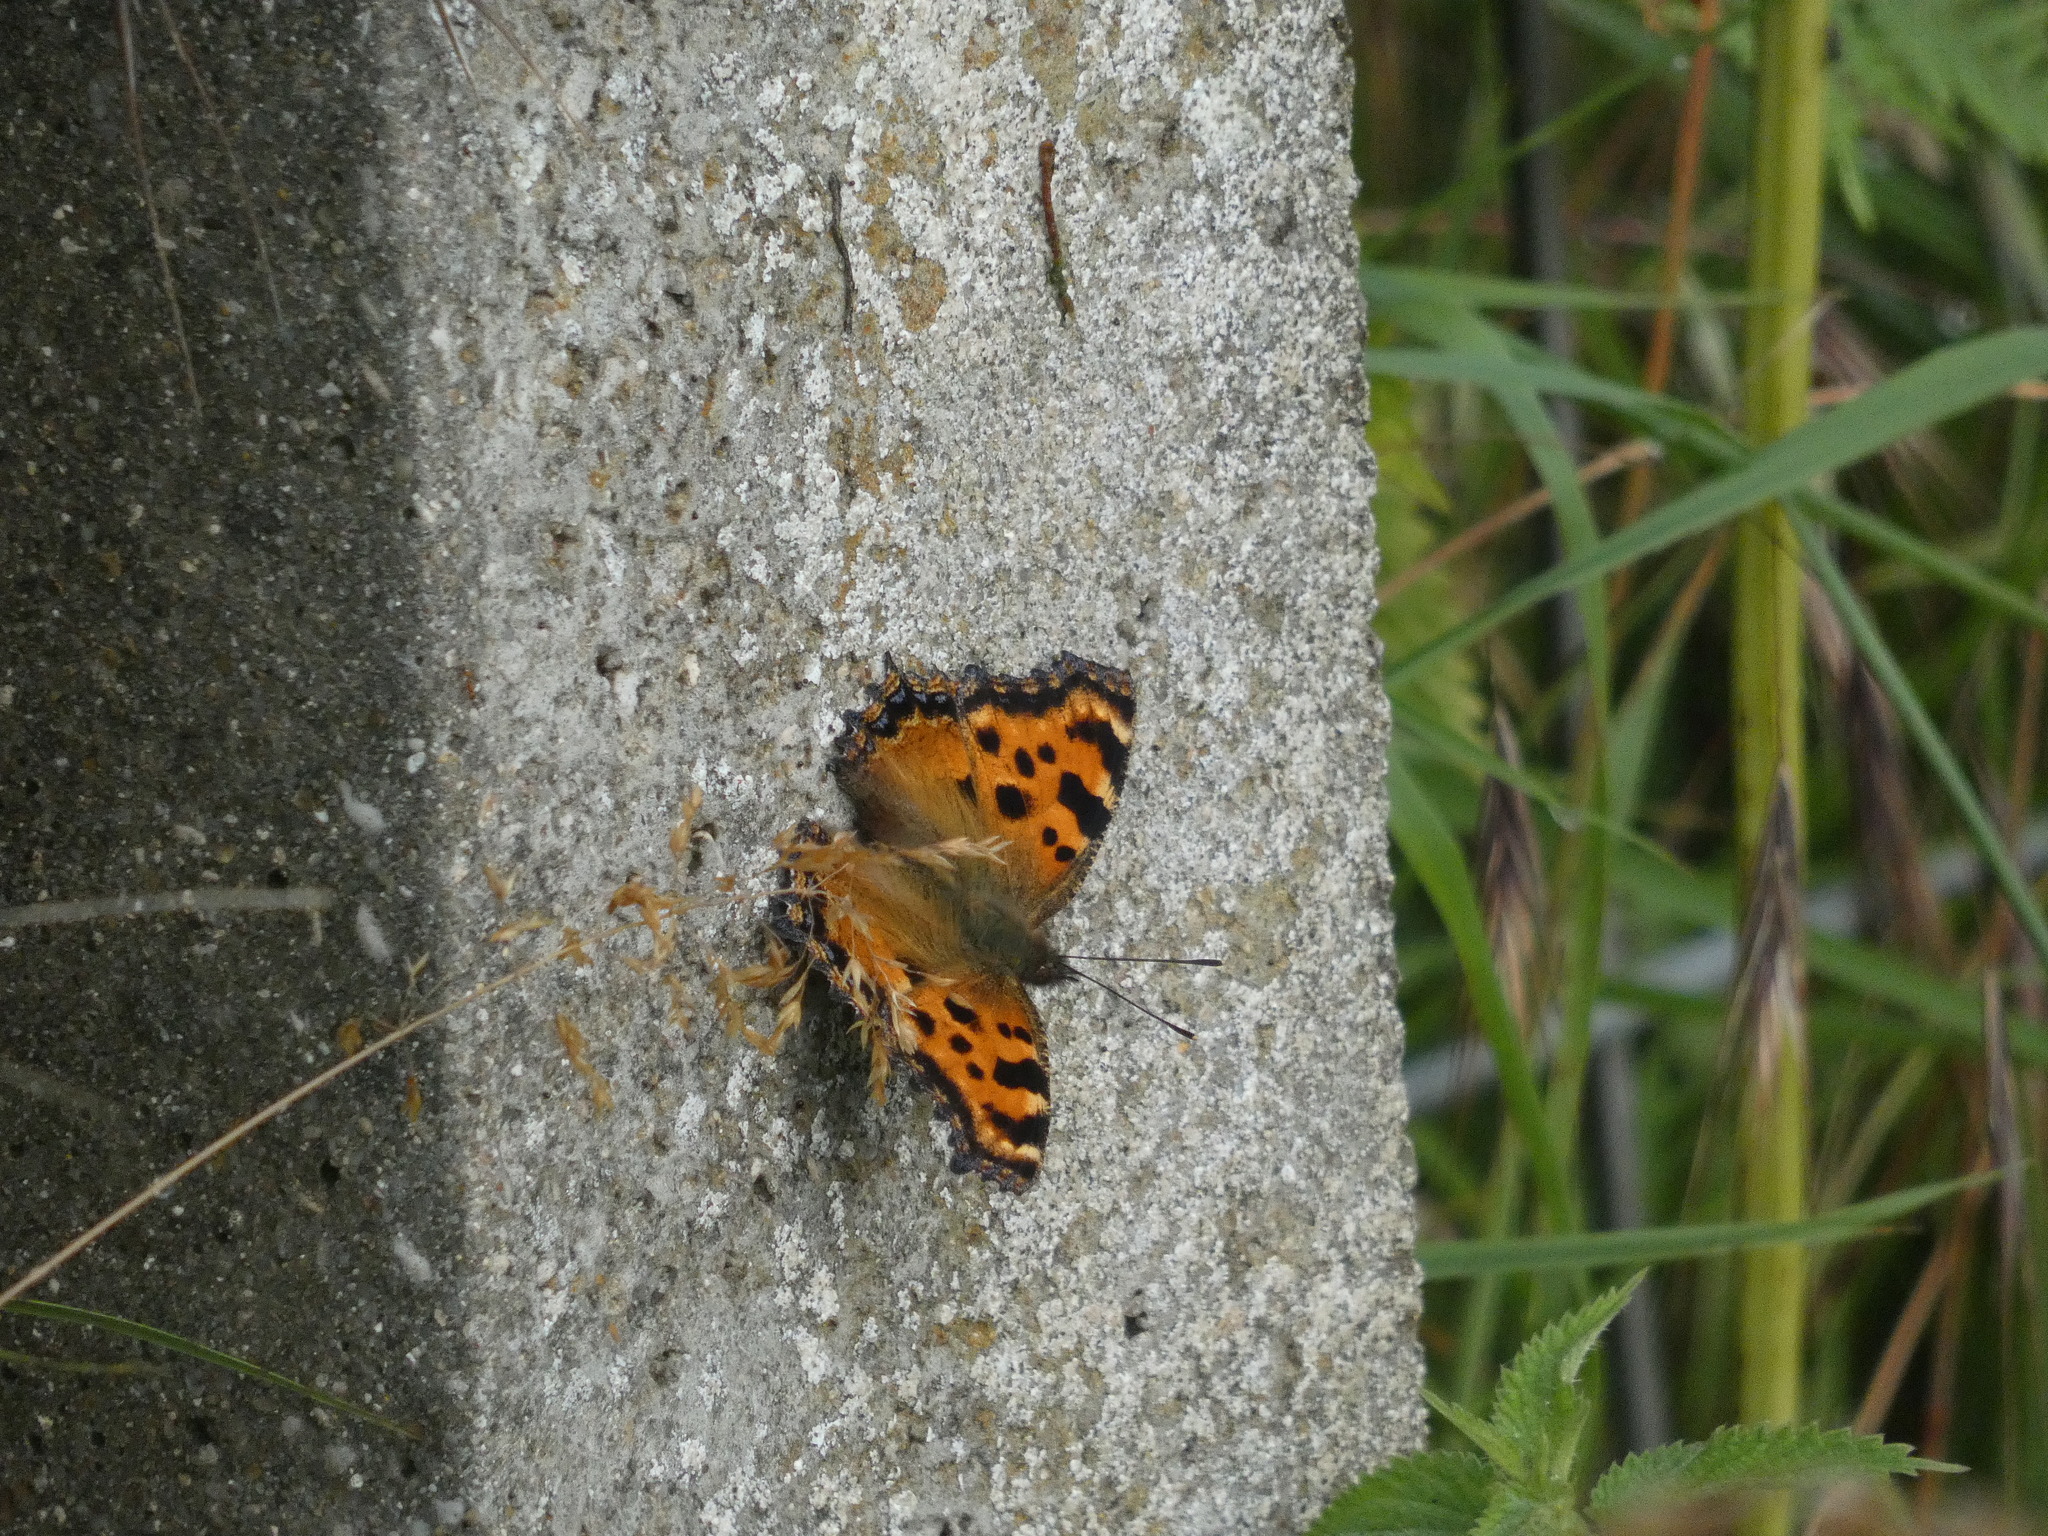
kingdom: Animalia
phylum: Arthropoda
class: Insecta
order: Lepidoptera
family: Nymphalidae
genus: Nymphalis
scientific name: Nymphalis polychloros
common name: Large tortoiseshell
